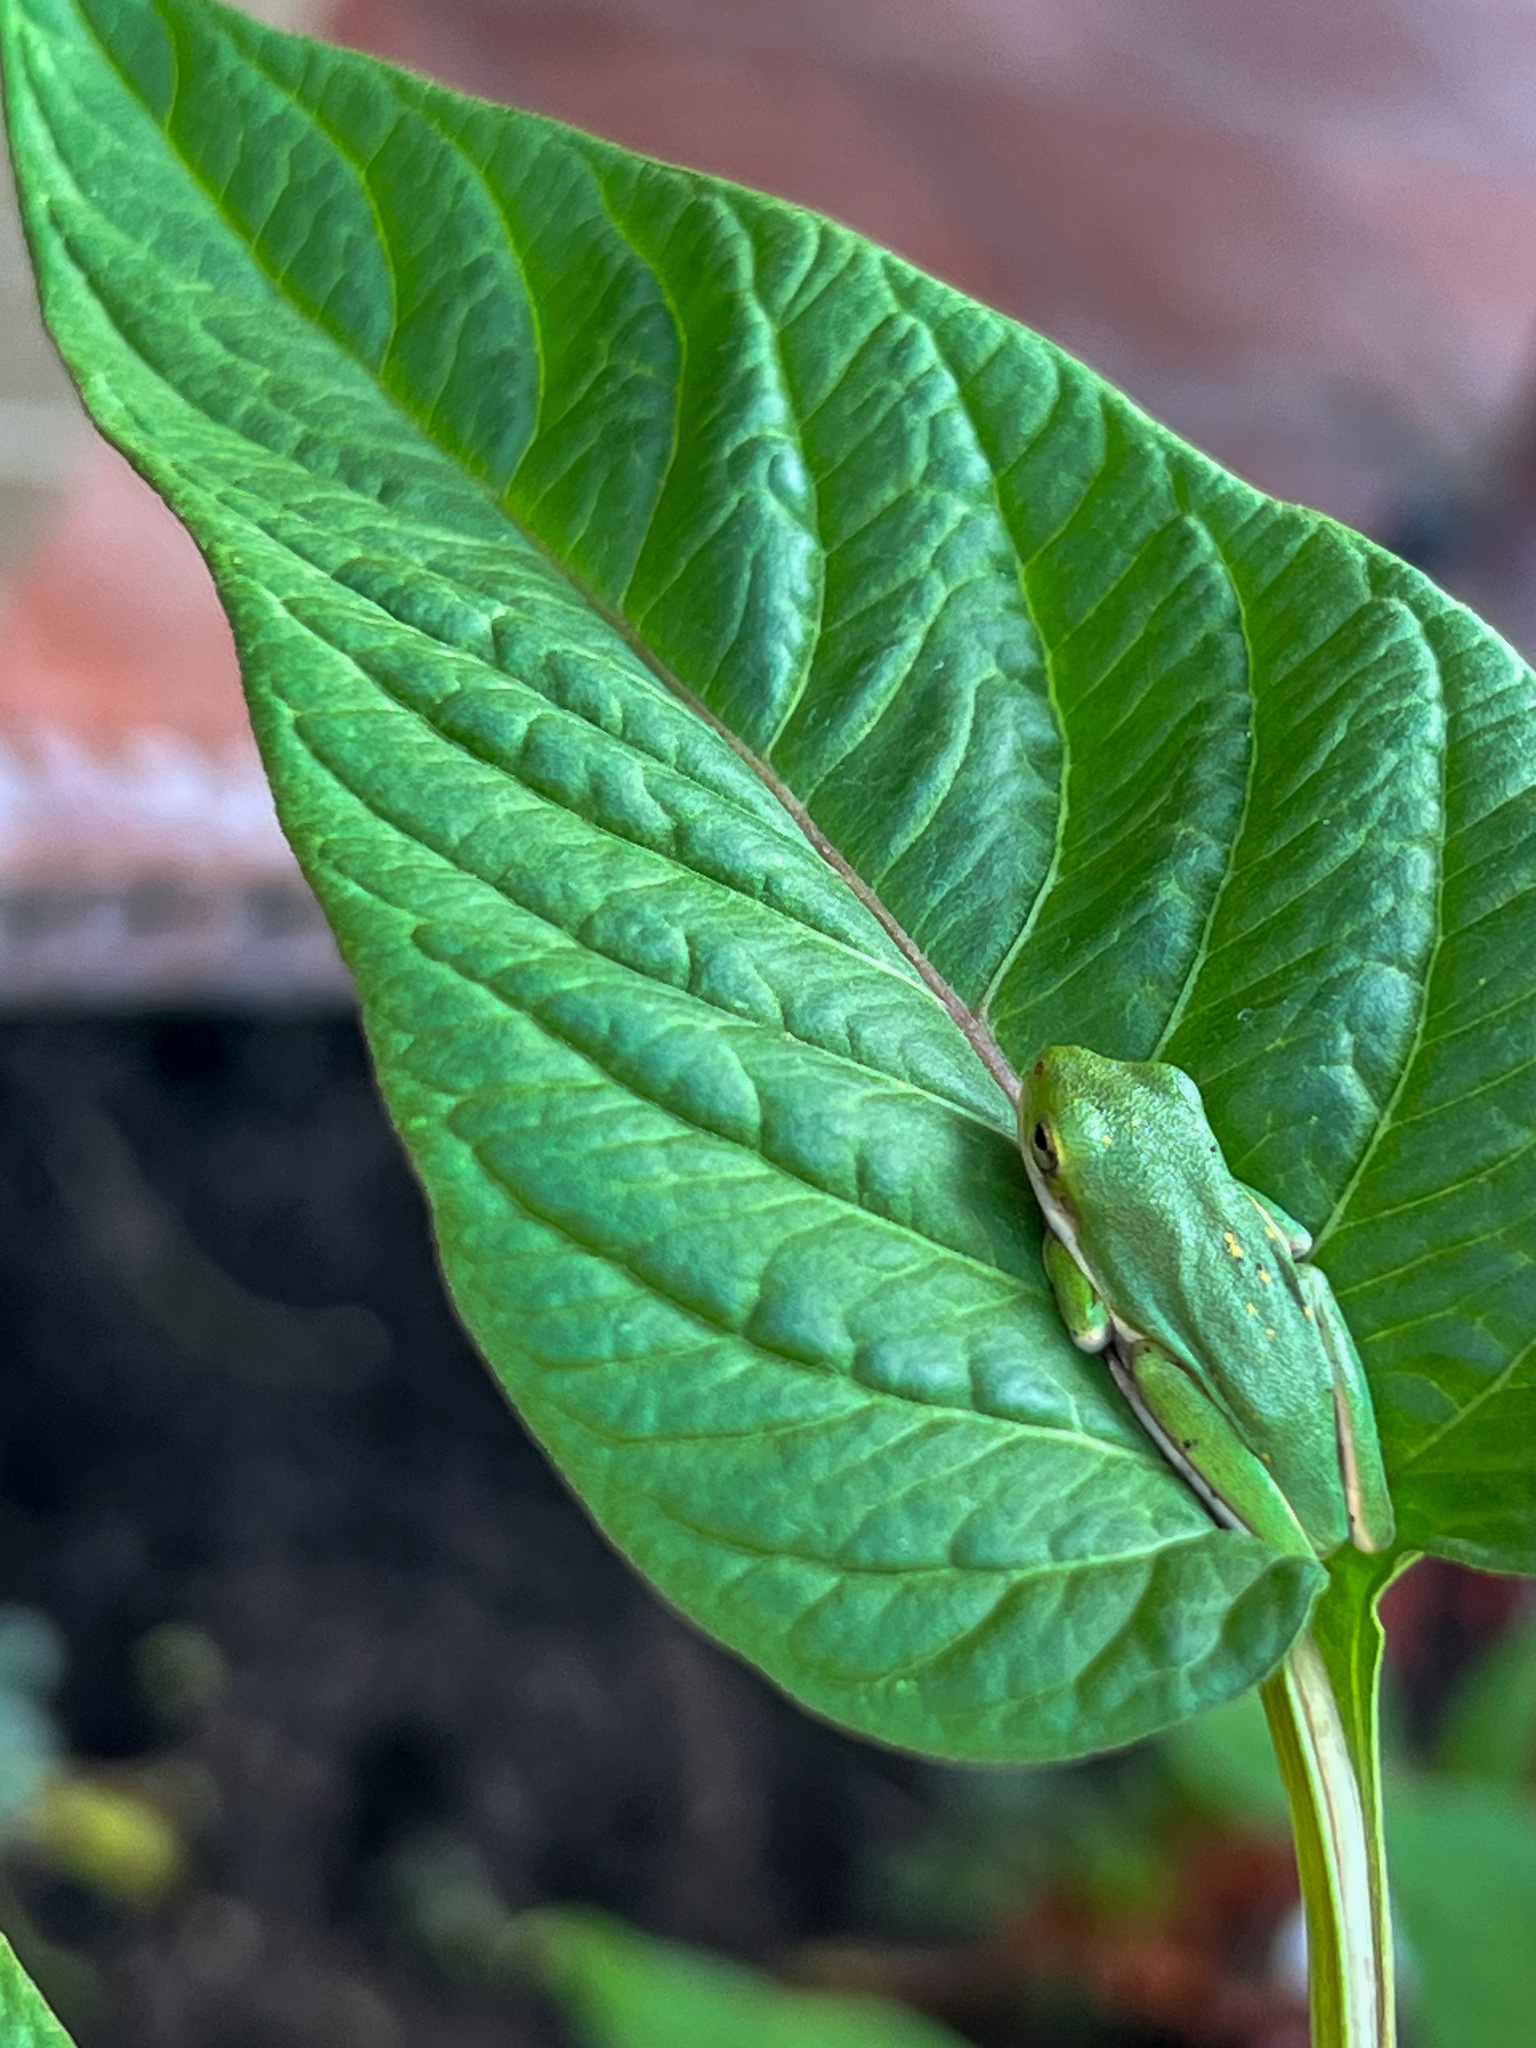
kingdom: Animalia
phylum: Chordata
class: Amphibia
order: Anura
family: Hylidae
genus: Dryophytes
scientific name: Dryophytes cinereus
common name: Green treefrog
